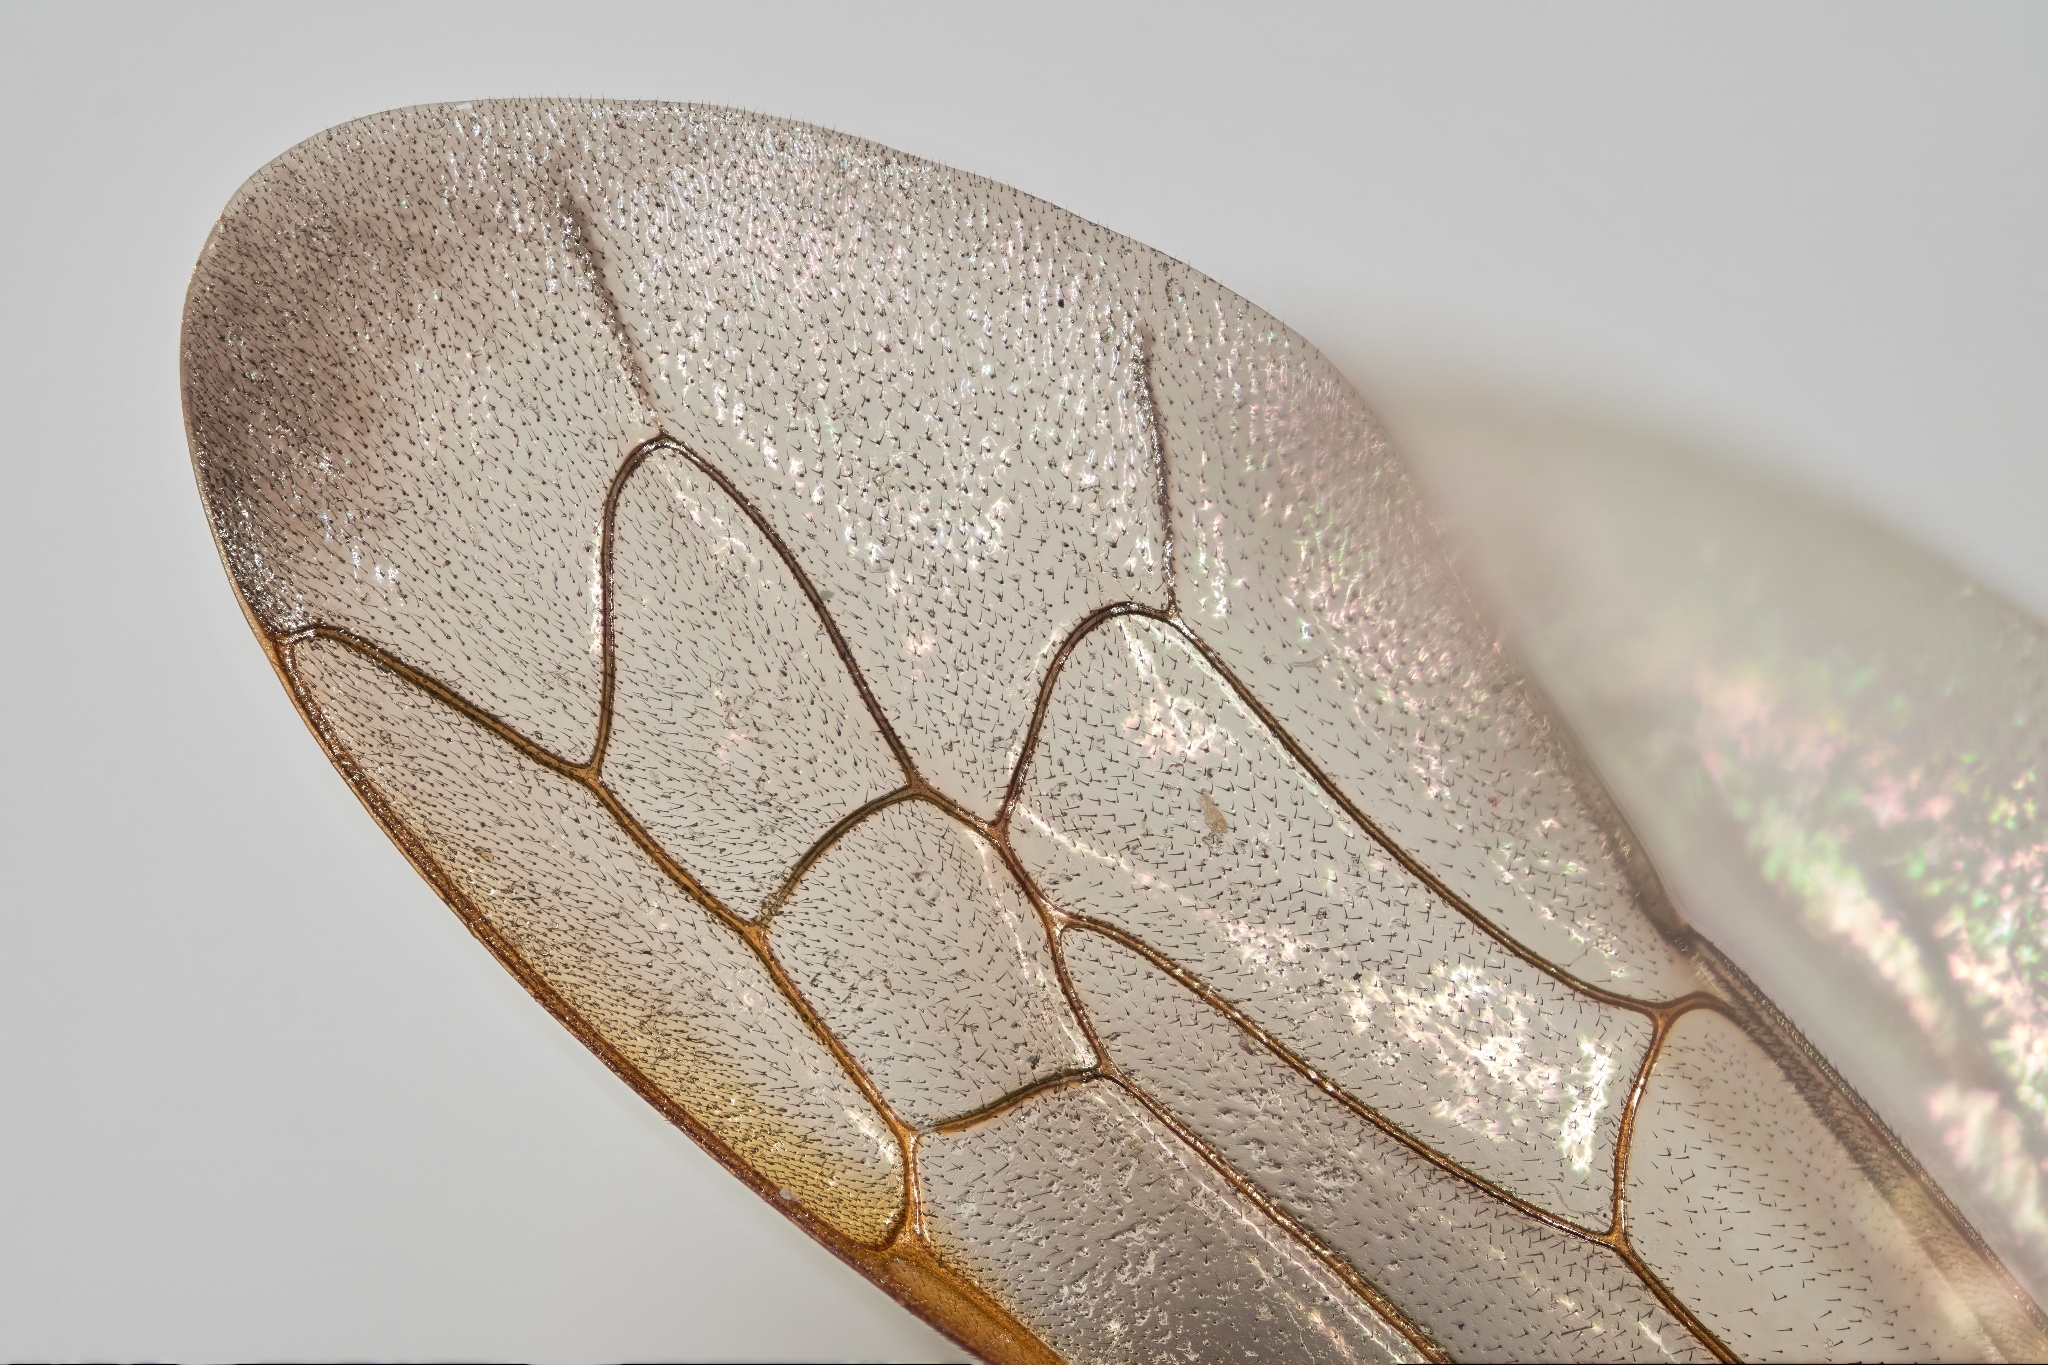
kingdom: Animalia
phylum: Arthropoda
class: Insecta
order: Hymenoptera
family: Sphecidae
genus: Sceliphron
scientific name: Sceliphron curvatum
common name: Pèlopèe
